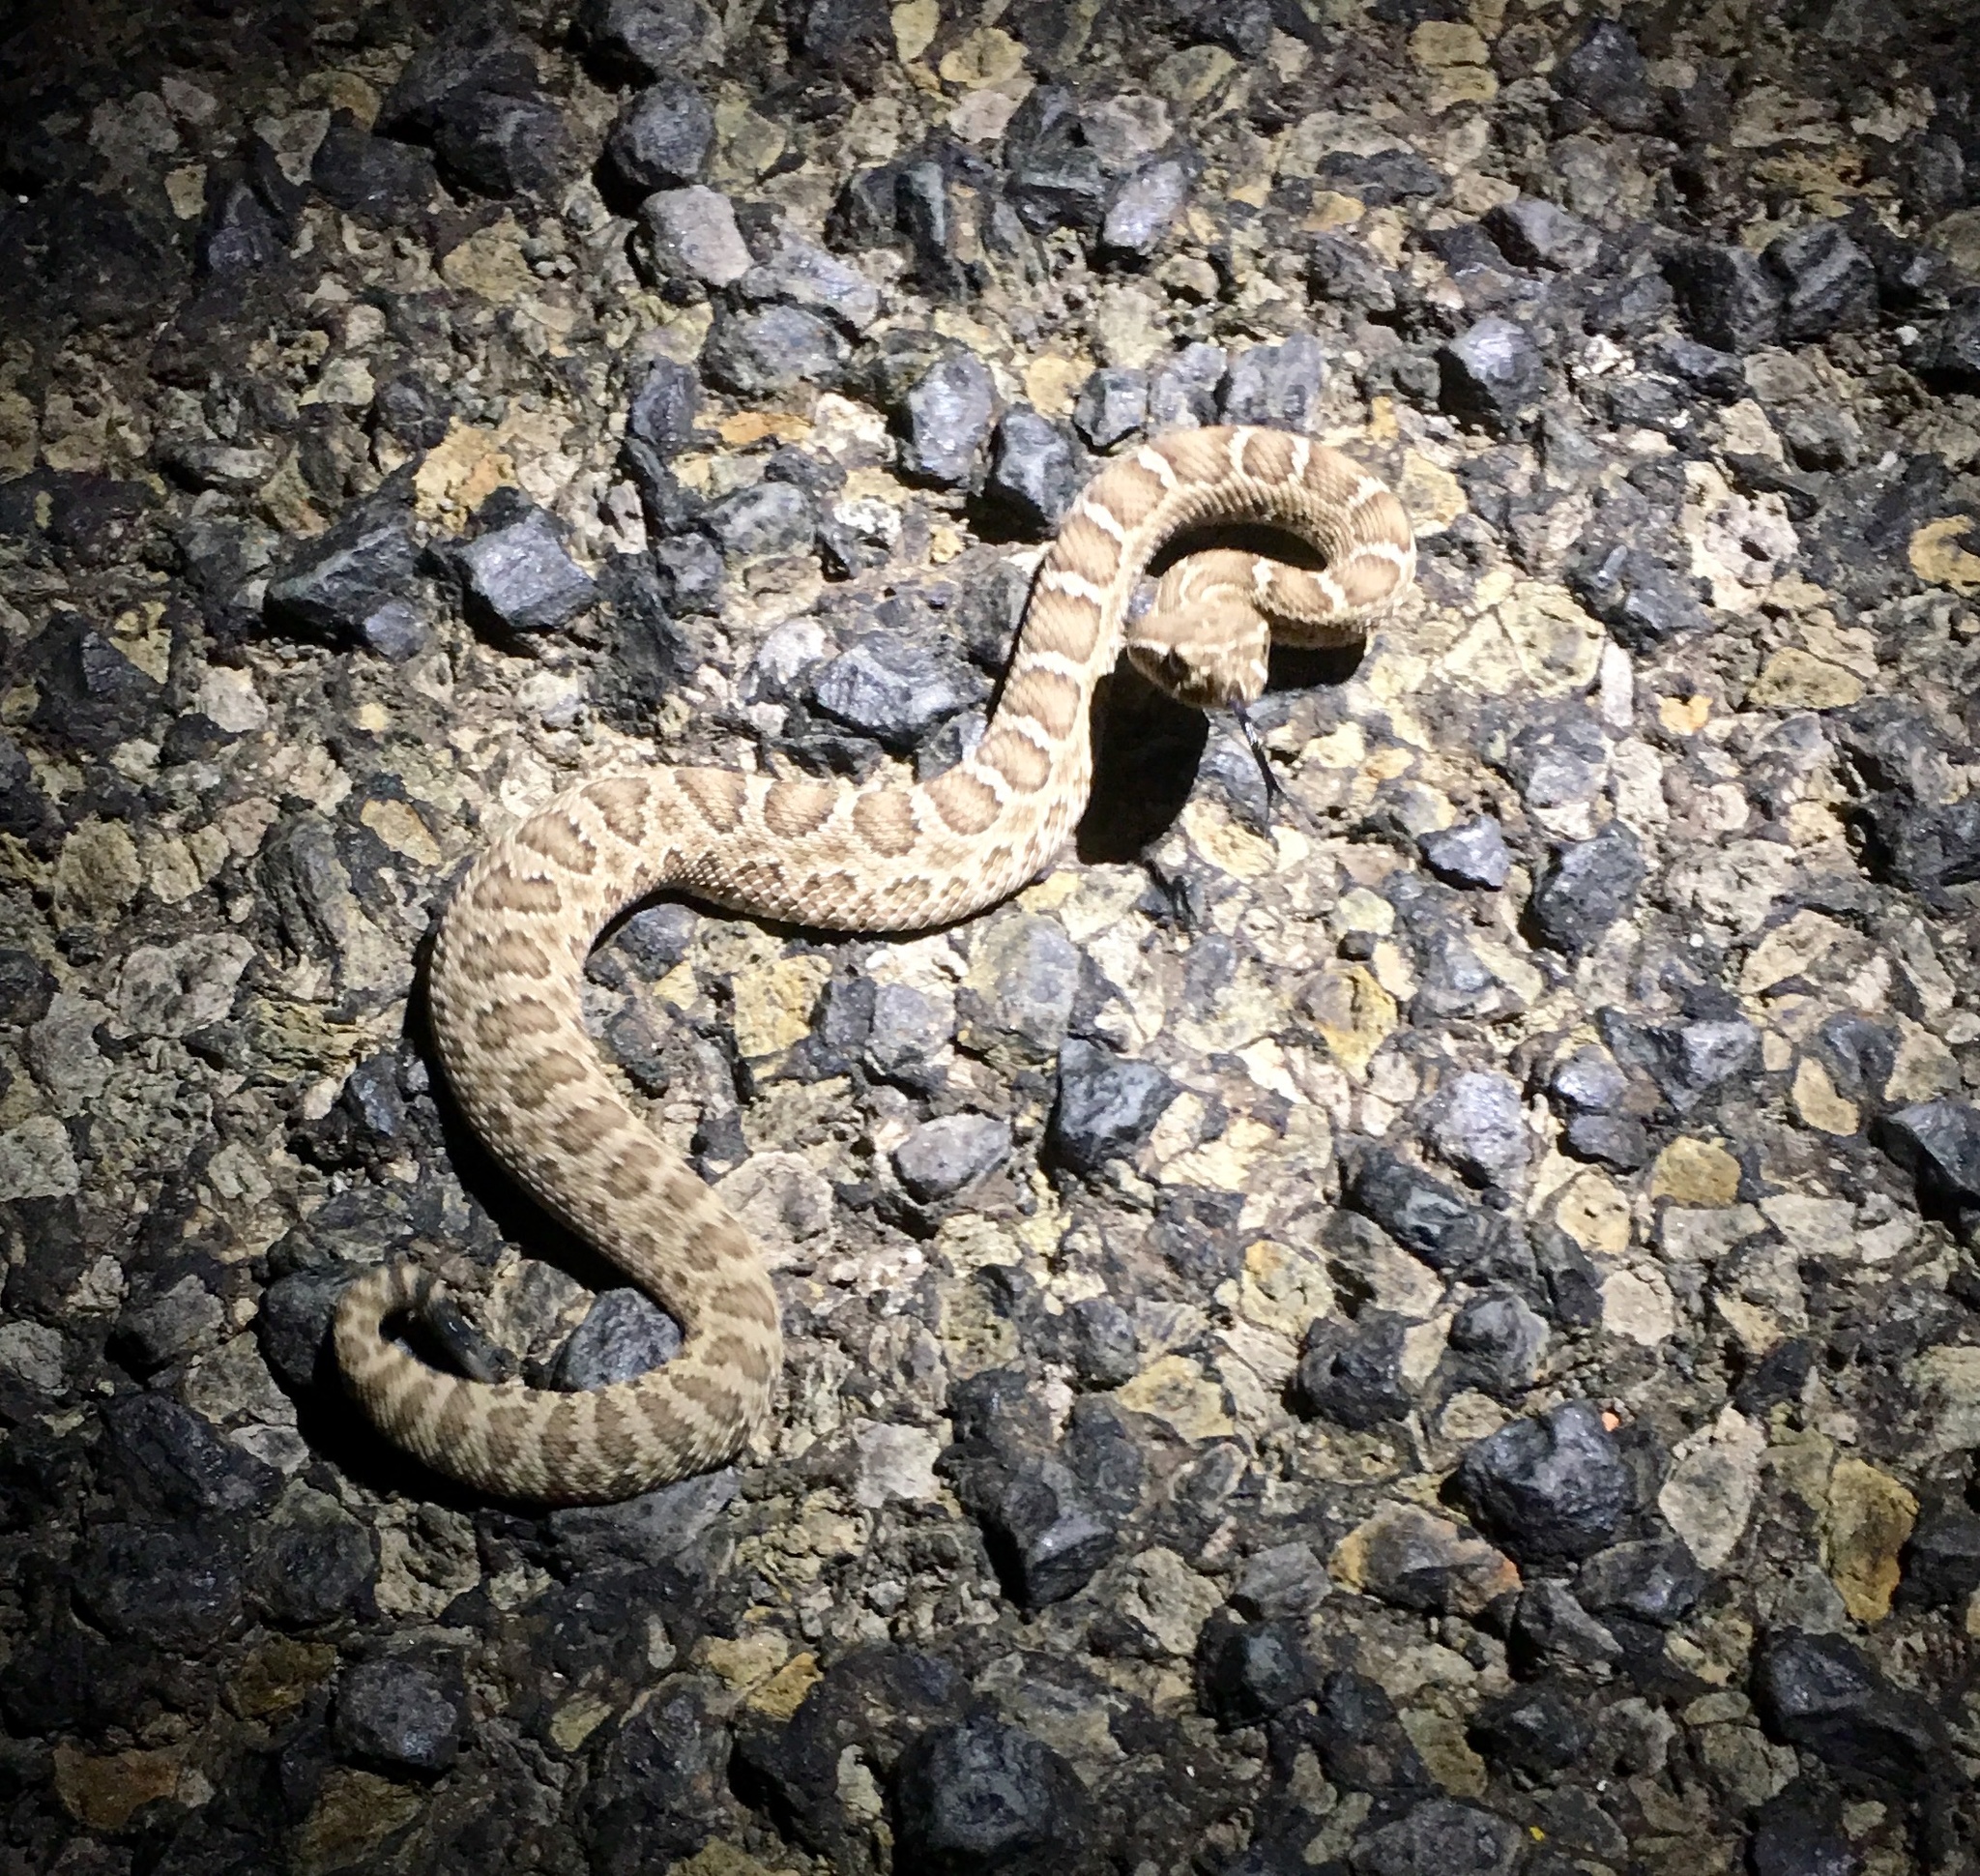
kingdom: Animalia
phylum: Chordata
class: Squamata
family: Viperidae
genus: Crotalus
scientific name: Crotalus viridis
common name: Prairie rattlesnake
